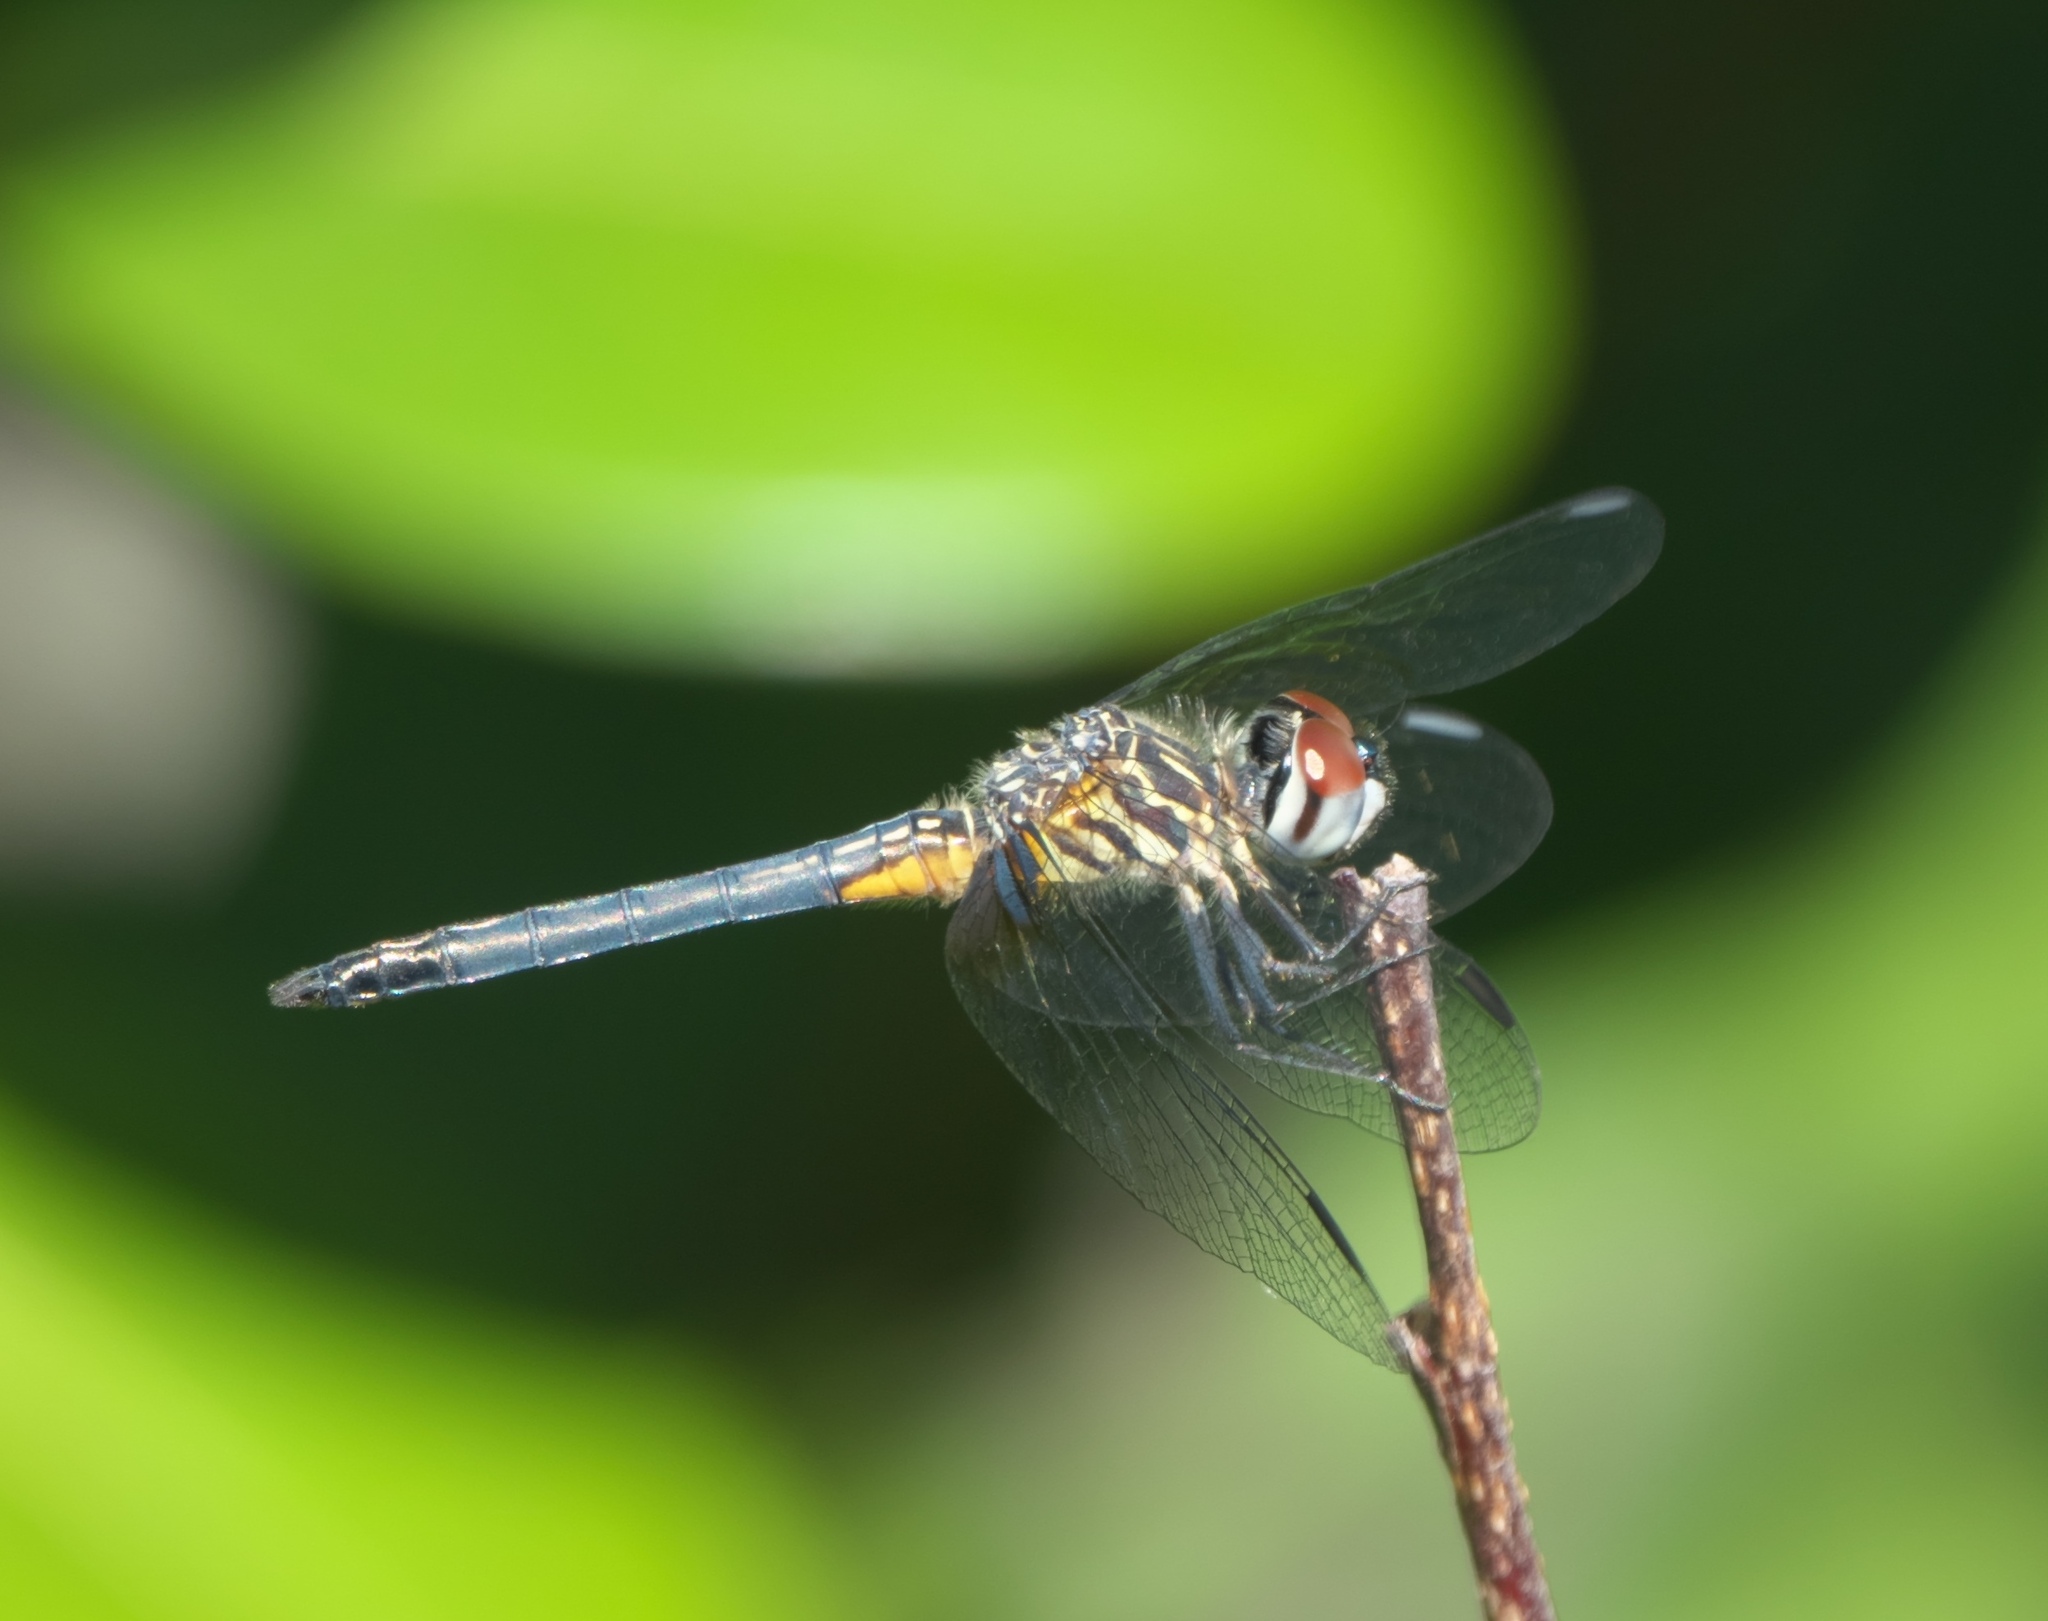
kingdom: Animalia
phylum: Arthropoda
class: Insecta
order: Odonata
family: Libellulidae
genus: Pachydiplax
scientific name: Pachydiplax longipennis
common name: Blue dasher
